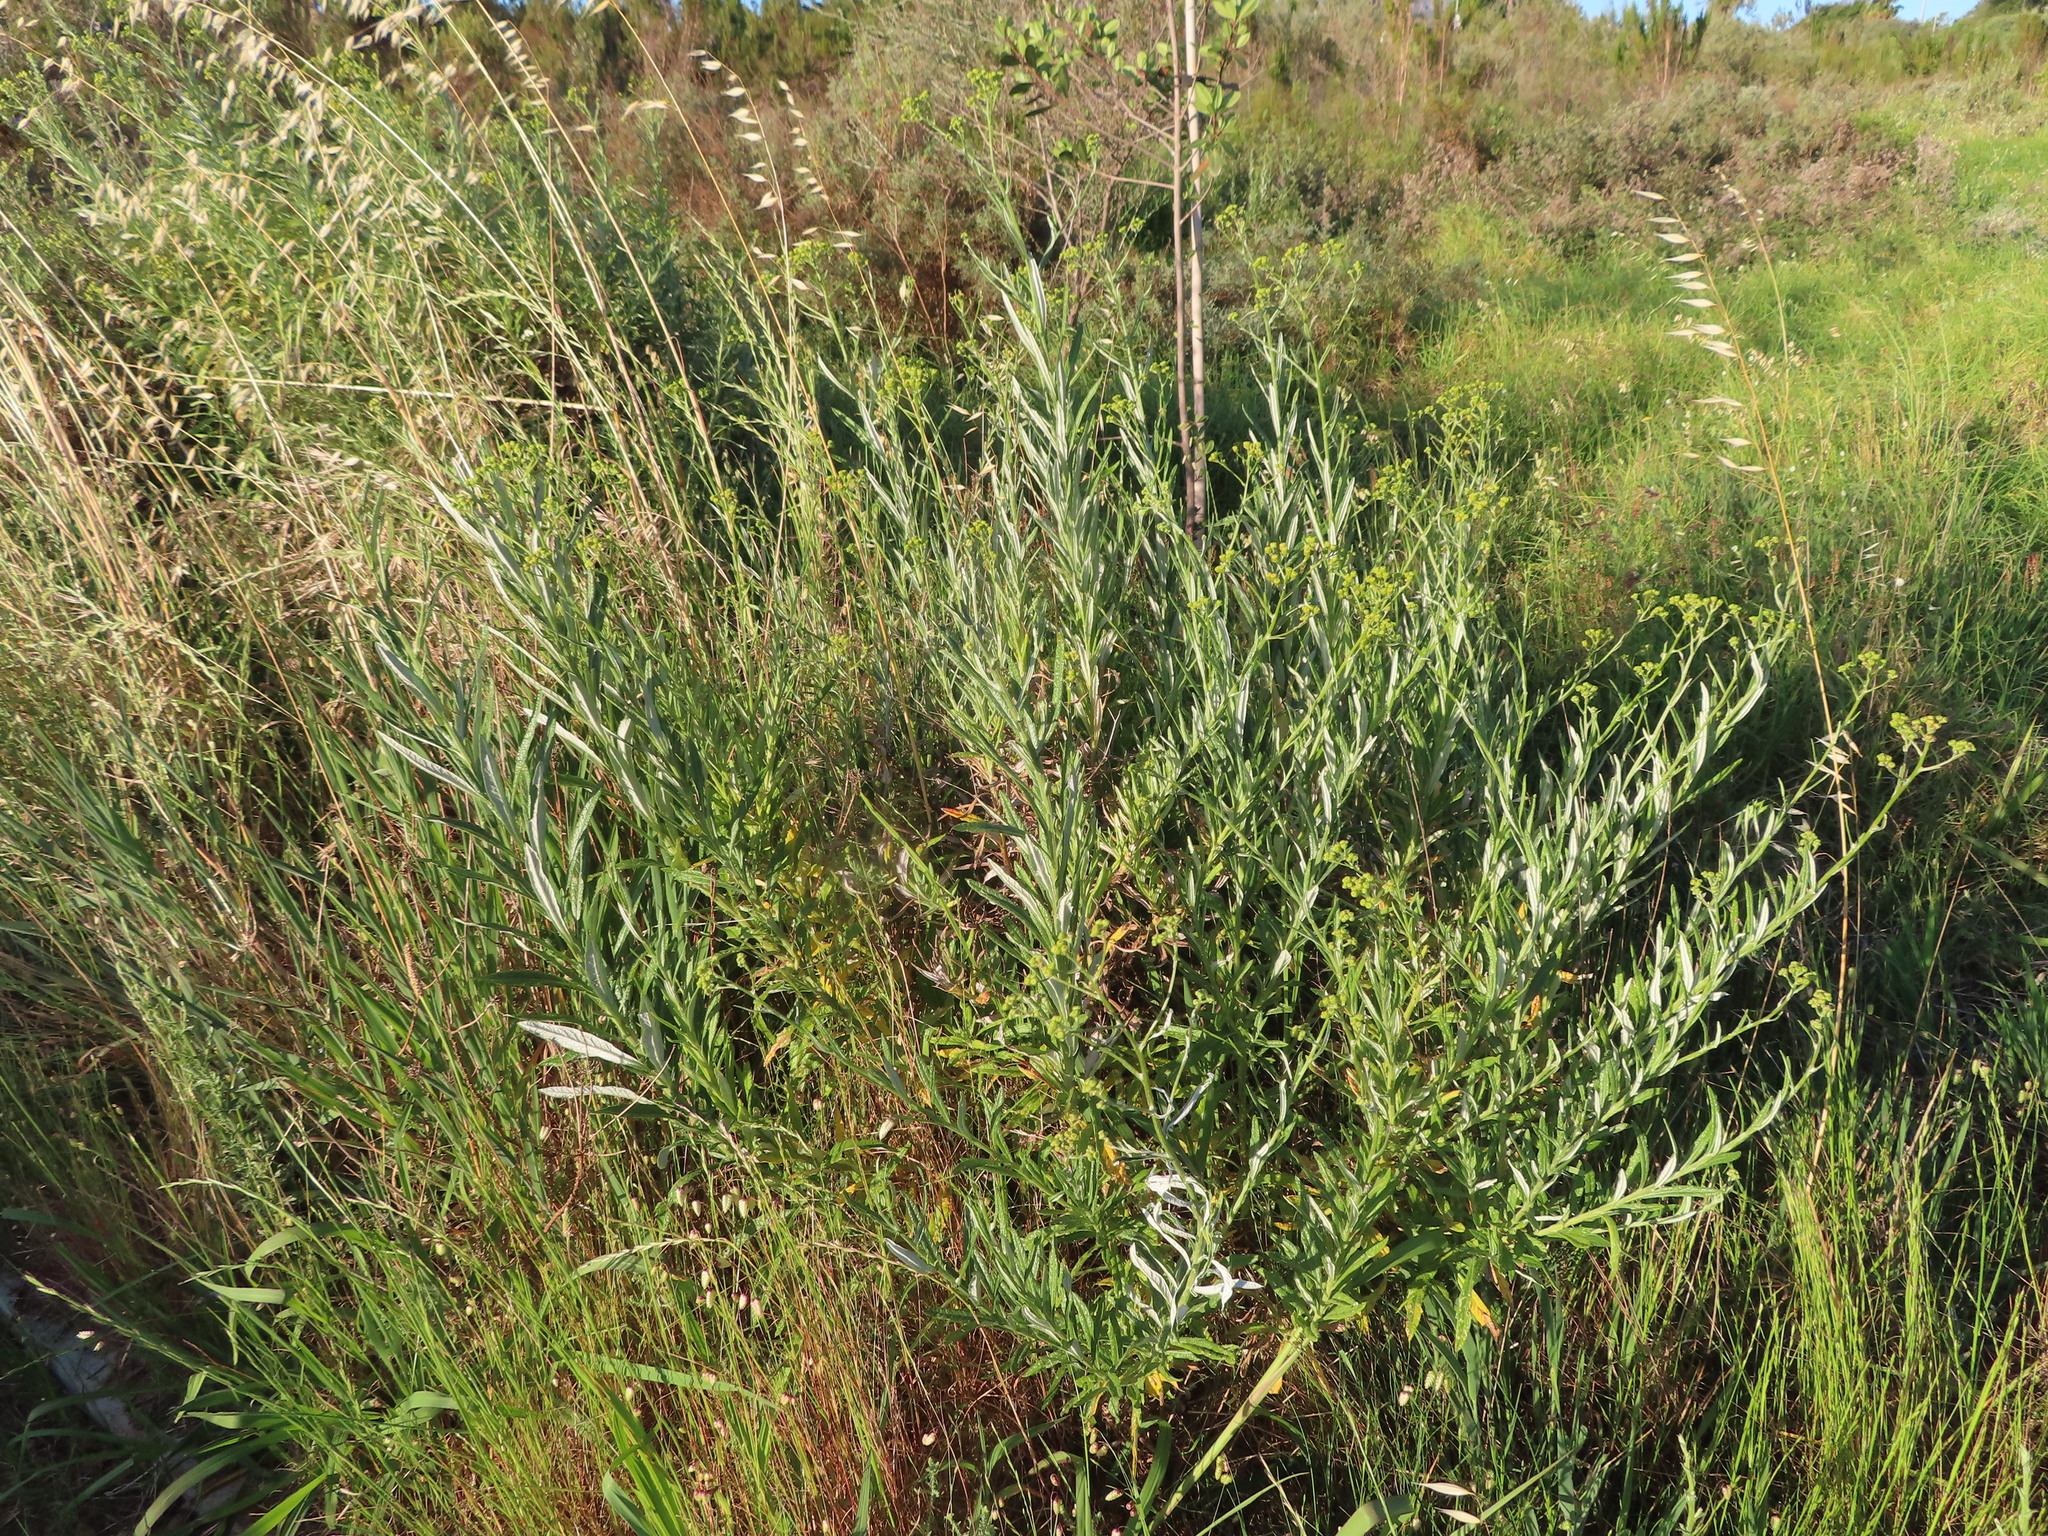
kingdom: Plantae
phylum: Tracheophyta
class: Magnoliopsida
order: Asterales
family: Asteraceae
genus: Senecio
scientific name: Senecio pterophorus
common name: Shoddy ragwort
